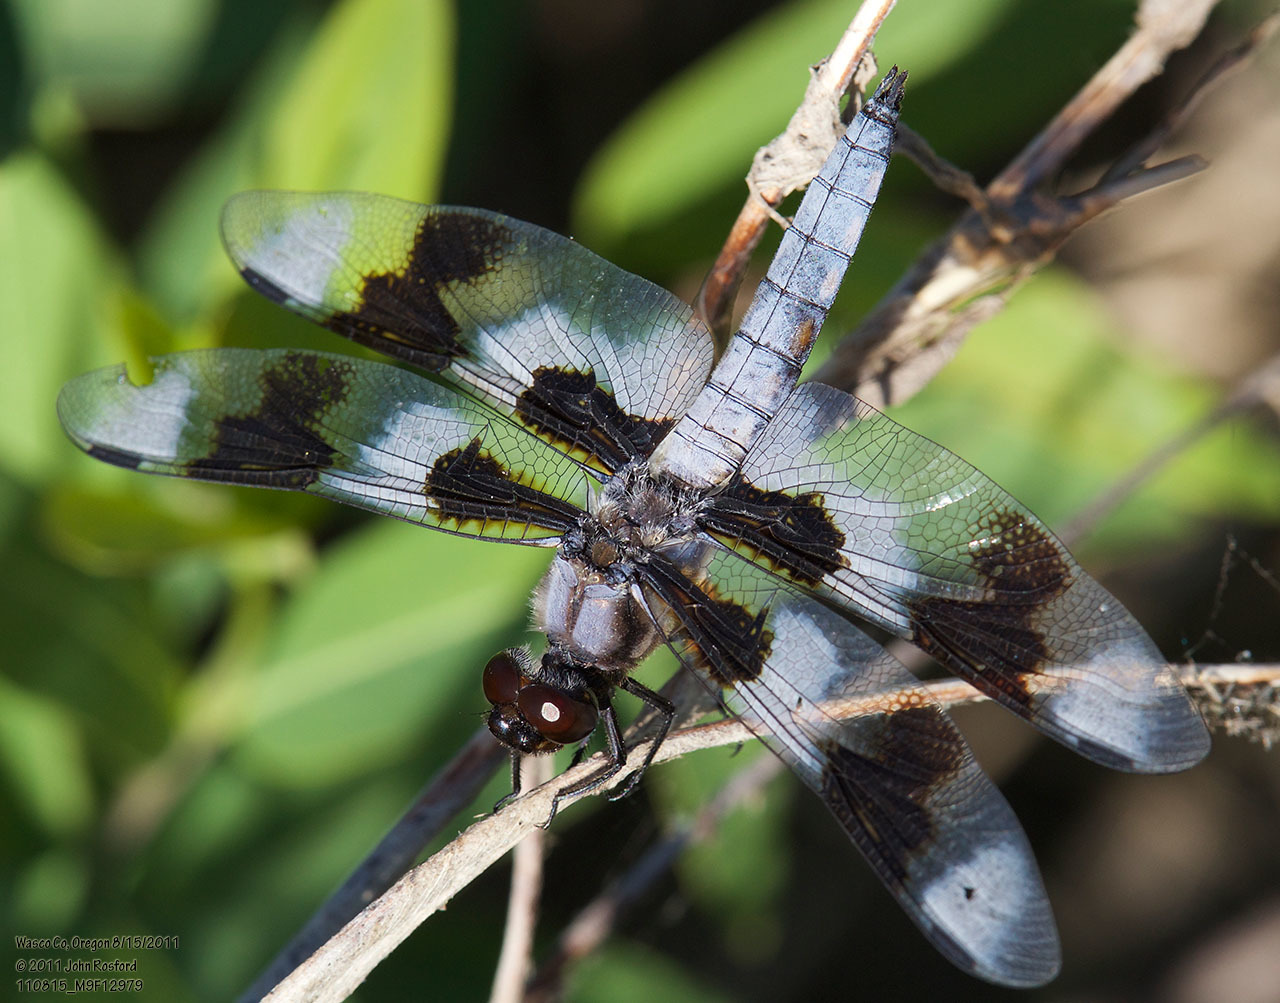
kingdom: Animalia
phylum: Arthropoda
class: Insecta
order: Odonata
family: Libellulidae
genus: Libellula
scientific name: Libellula forensis
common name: Eight-spotted skimmer
